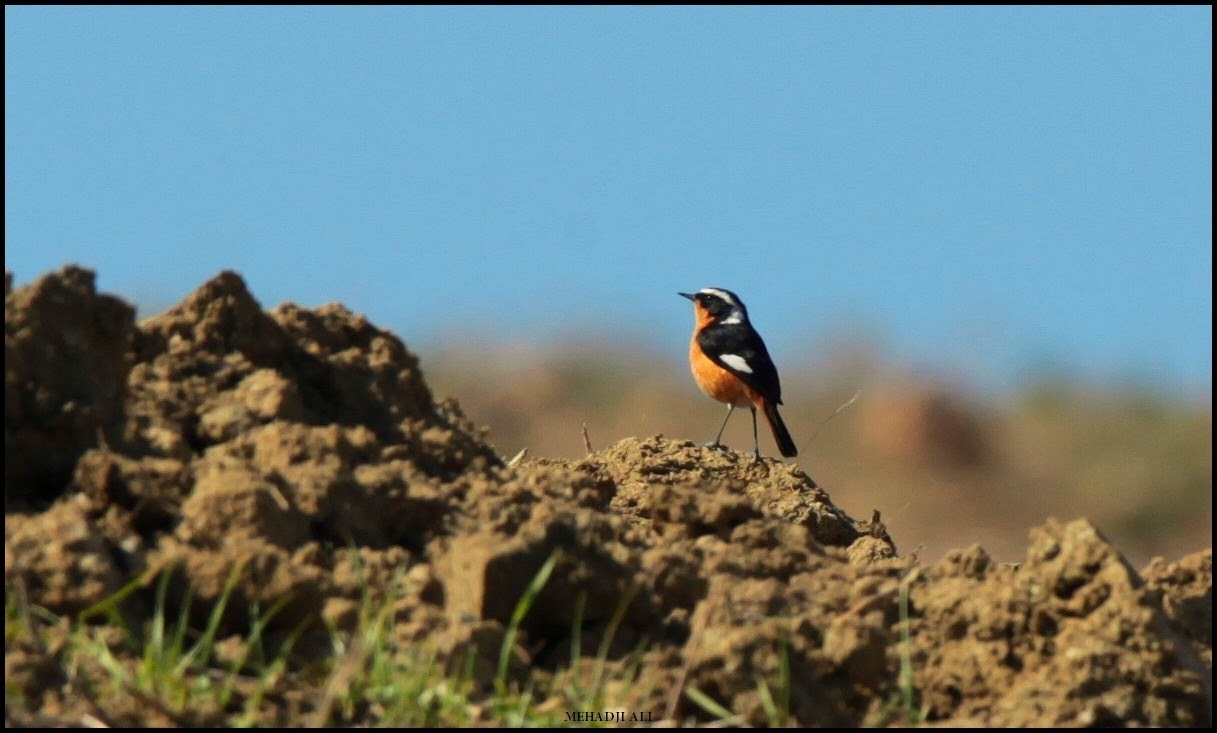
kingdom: Animalia
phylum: Chordata
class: Aves
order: Passeriformes
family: Muscicapidae
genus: Phoenicurus
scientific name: Phoenicurus moussieri
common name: Moussier's redstart
